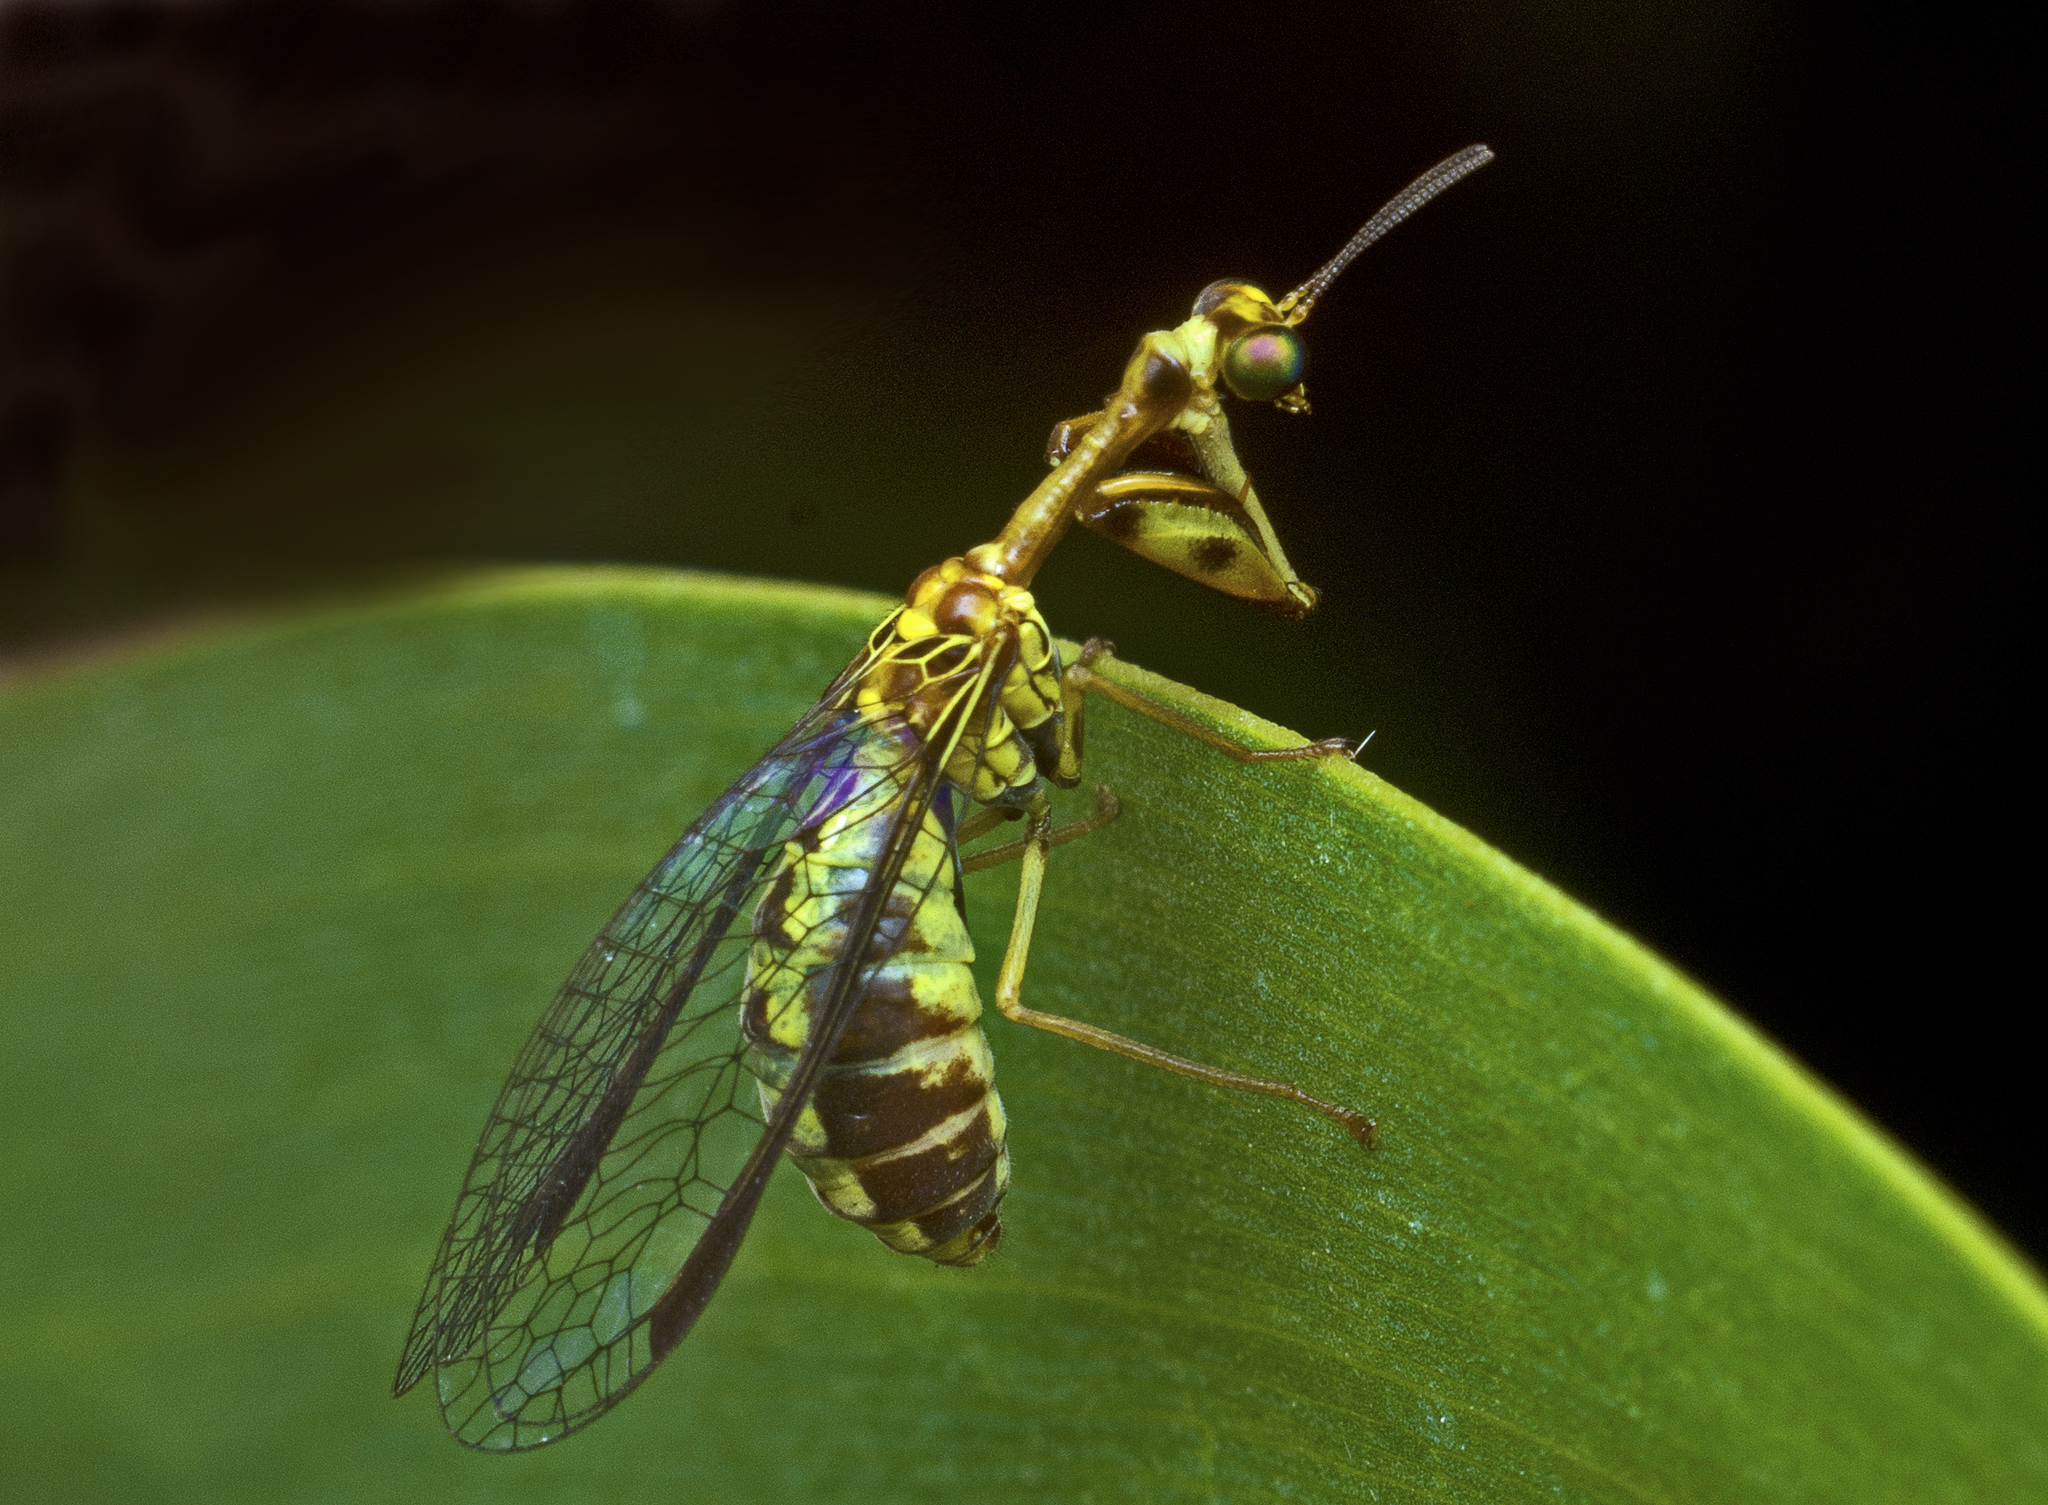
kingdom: Animalia
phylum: Arthropoda
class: Insecta
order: Neuroptera
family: Mantispidae
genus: Spaminta
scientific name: Spaminta minjerribae
